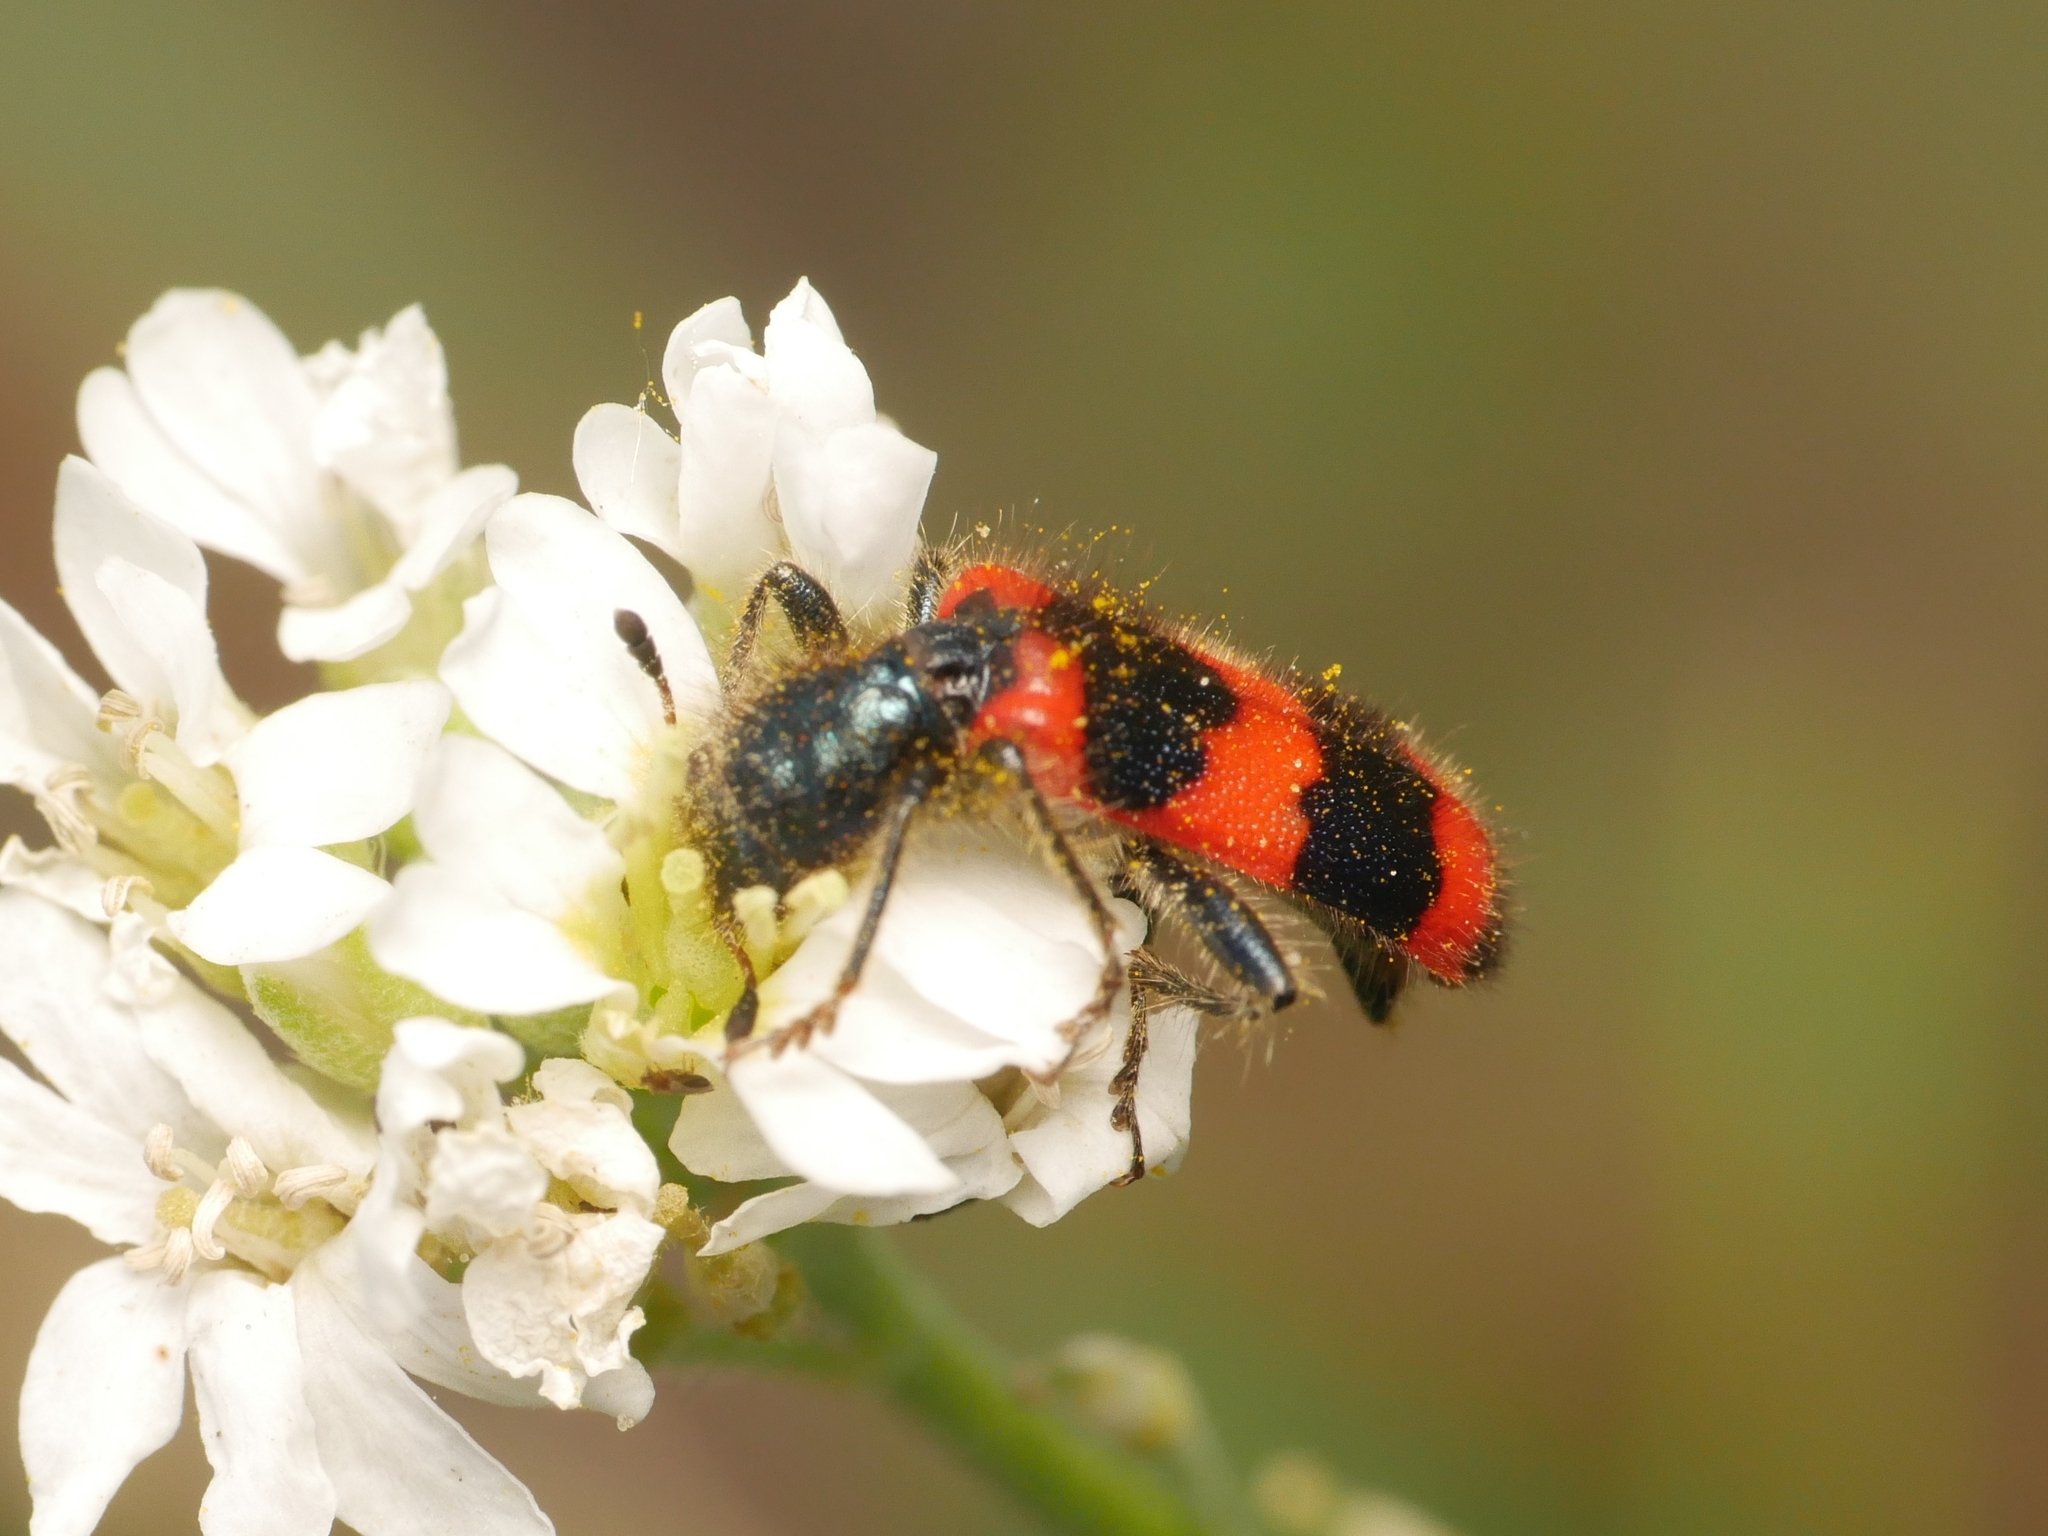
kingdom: Animalia
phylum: Arthropoda
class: Insecta
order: Coleoptera
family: Cleridae
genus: Trichodes
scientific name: Trichodes apiarius
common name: Bee-eating beetle
